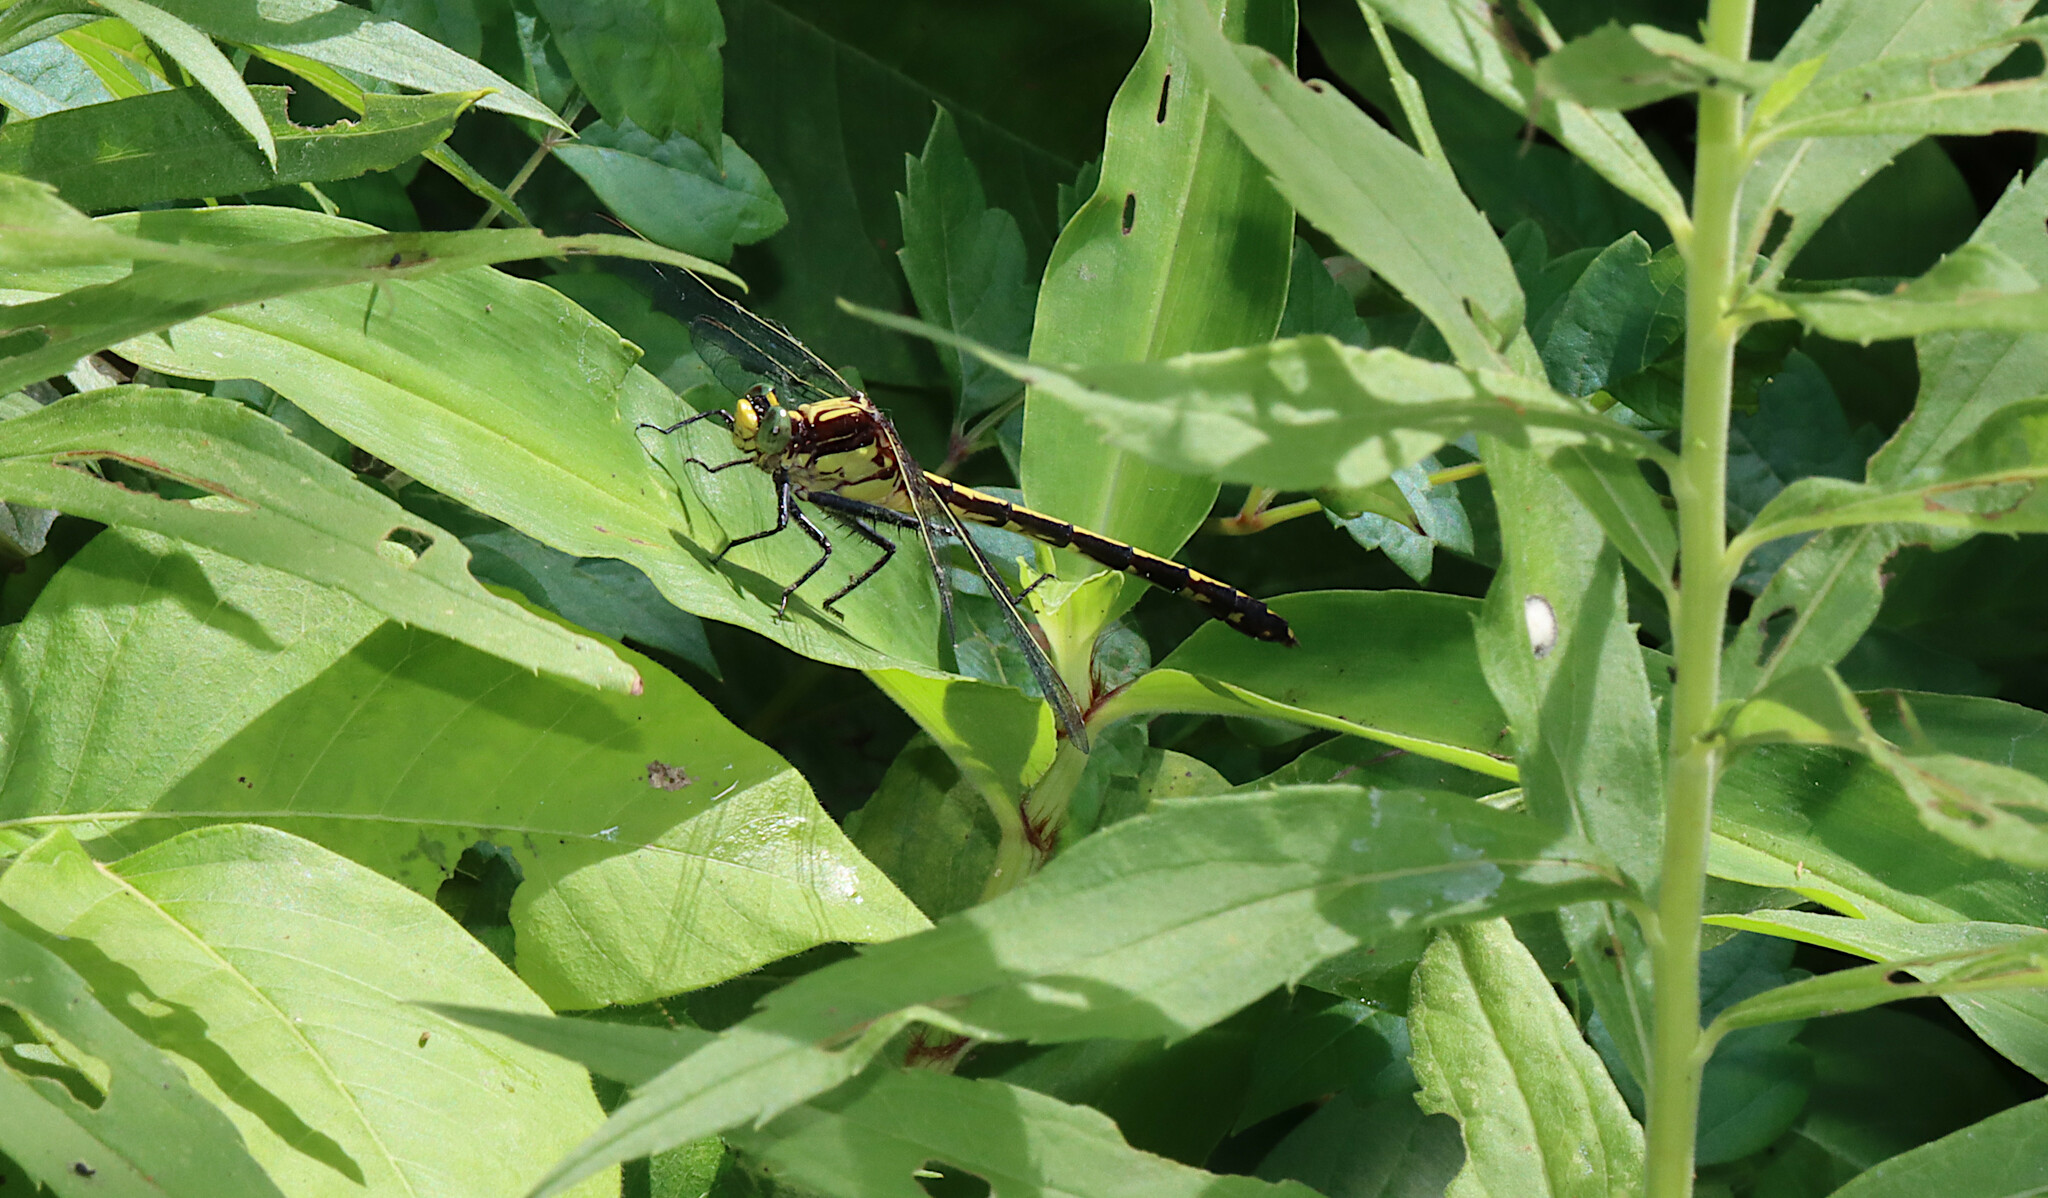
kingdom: Animalia
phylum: Arthropoda
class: Insecta
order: Odonata
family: Gomphidae
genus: Dromogomphus
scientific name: Dromogomphus spinosus
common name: Black-shouldered spinyleg
